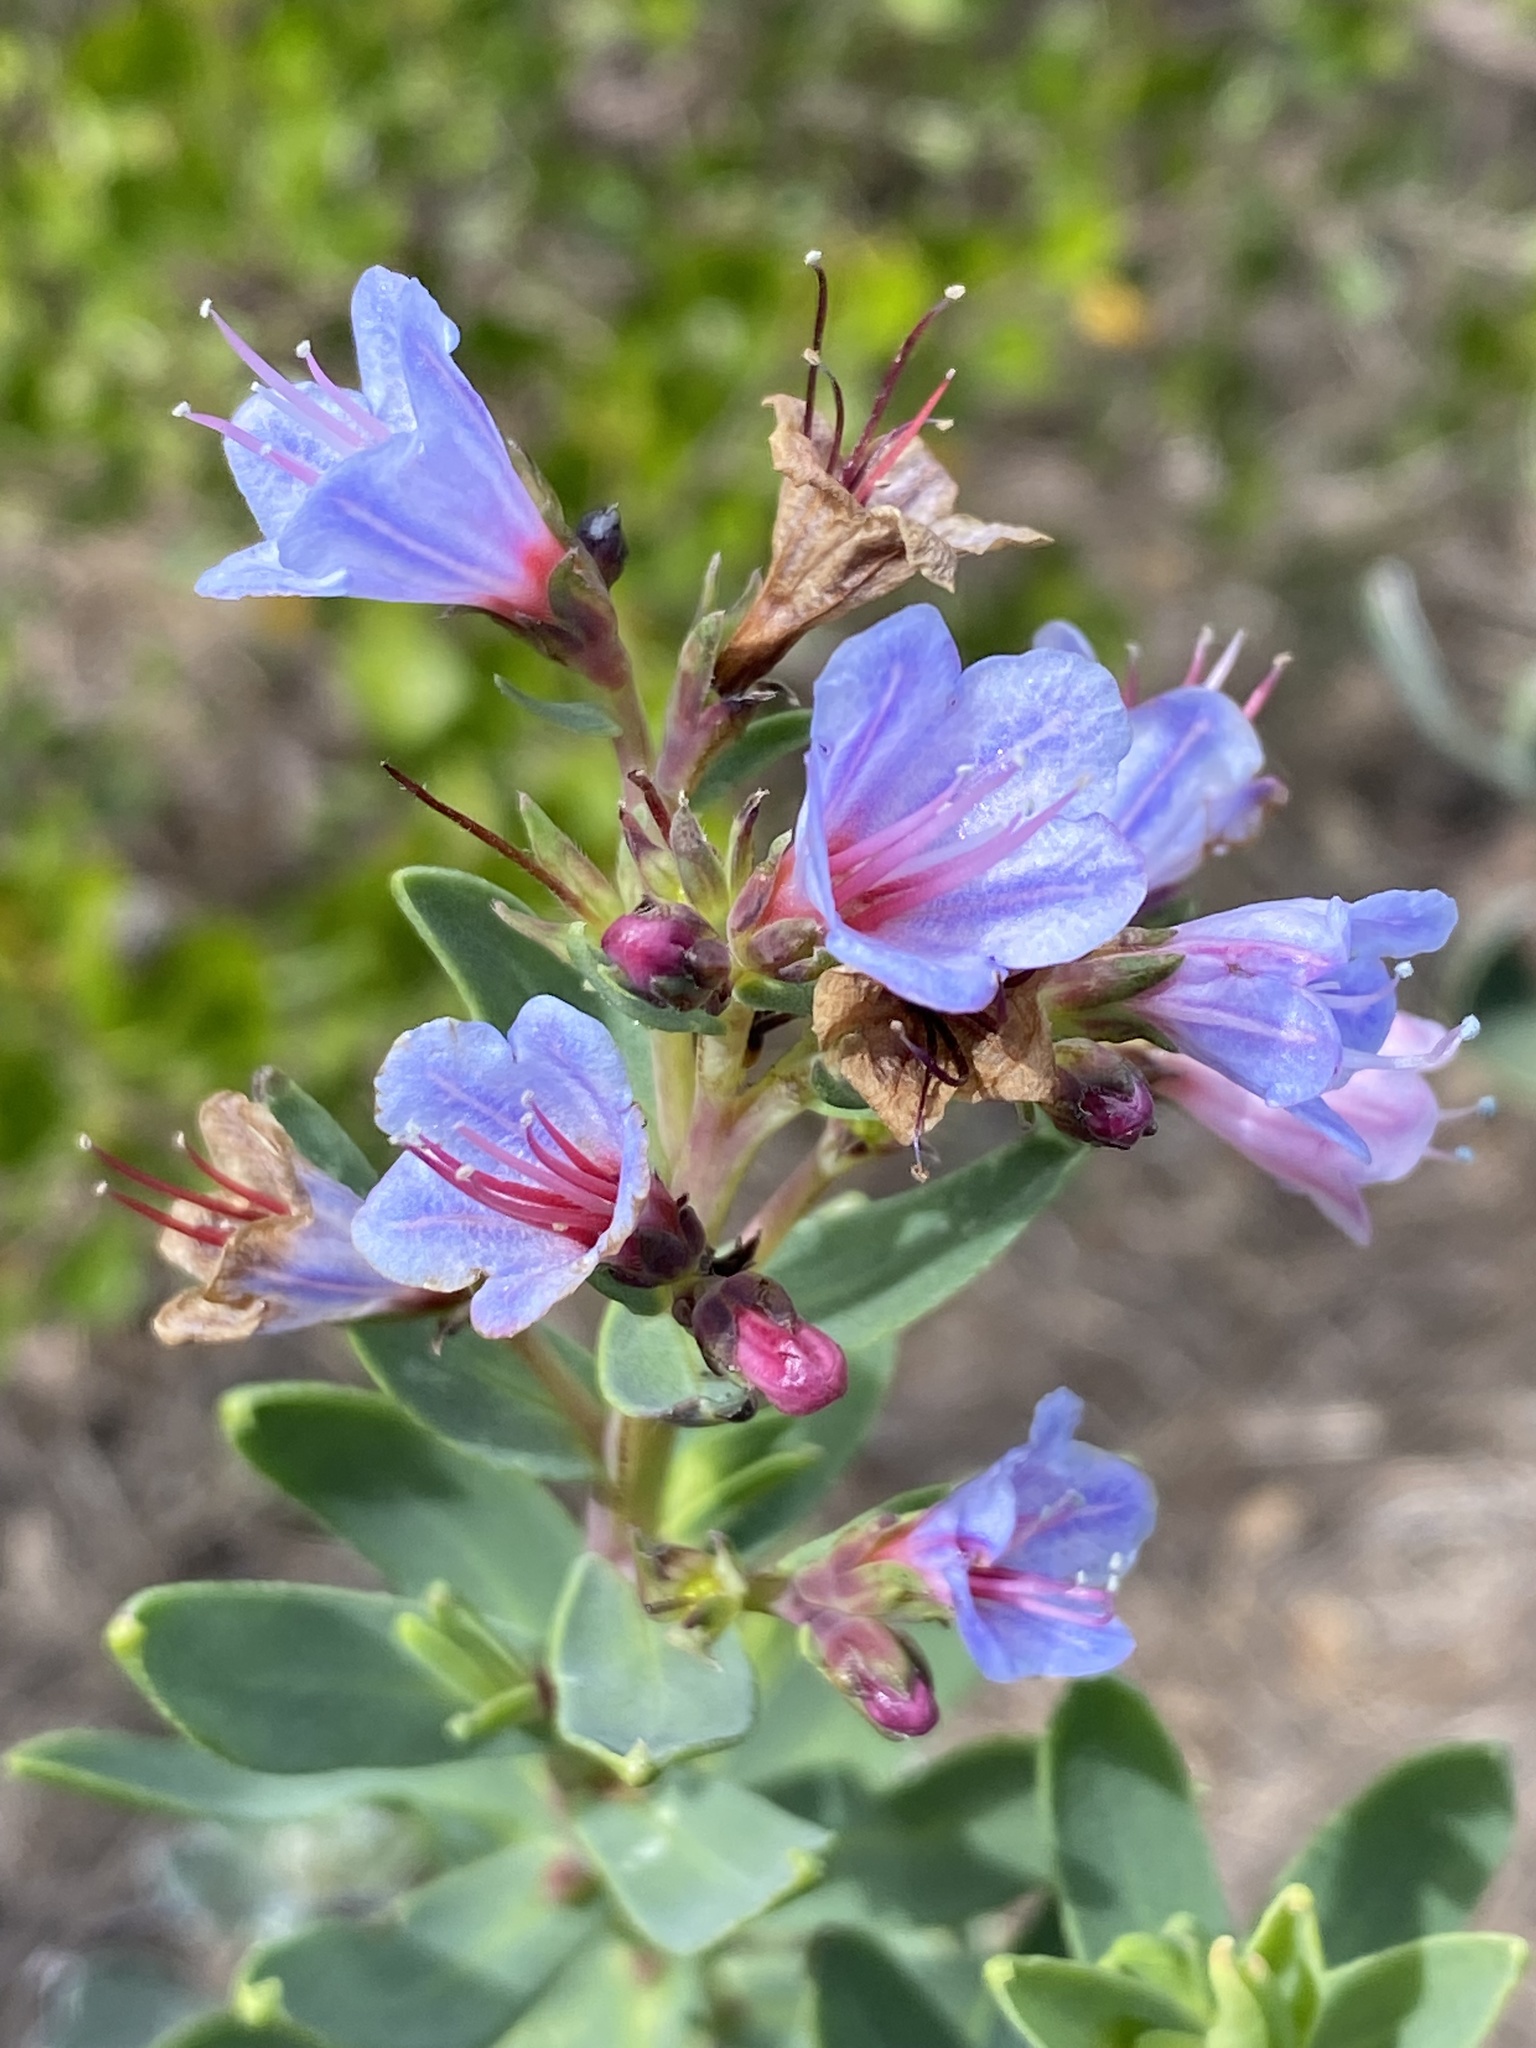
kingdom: Plantae
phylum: Tracheophyta
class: Magnoliopsida
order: Boraginales
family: Boraginaceae
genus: Lobostemon
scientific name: Lobostemon glaucophyllus
